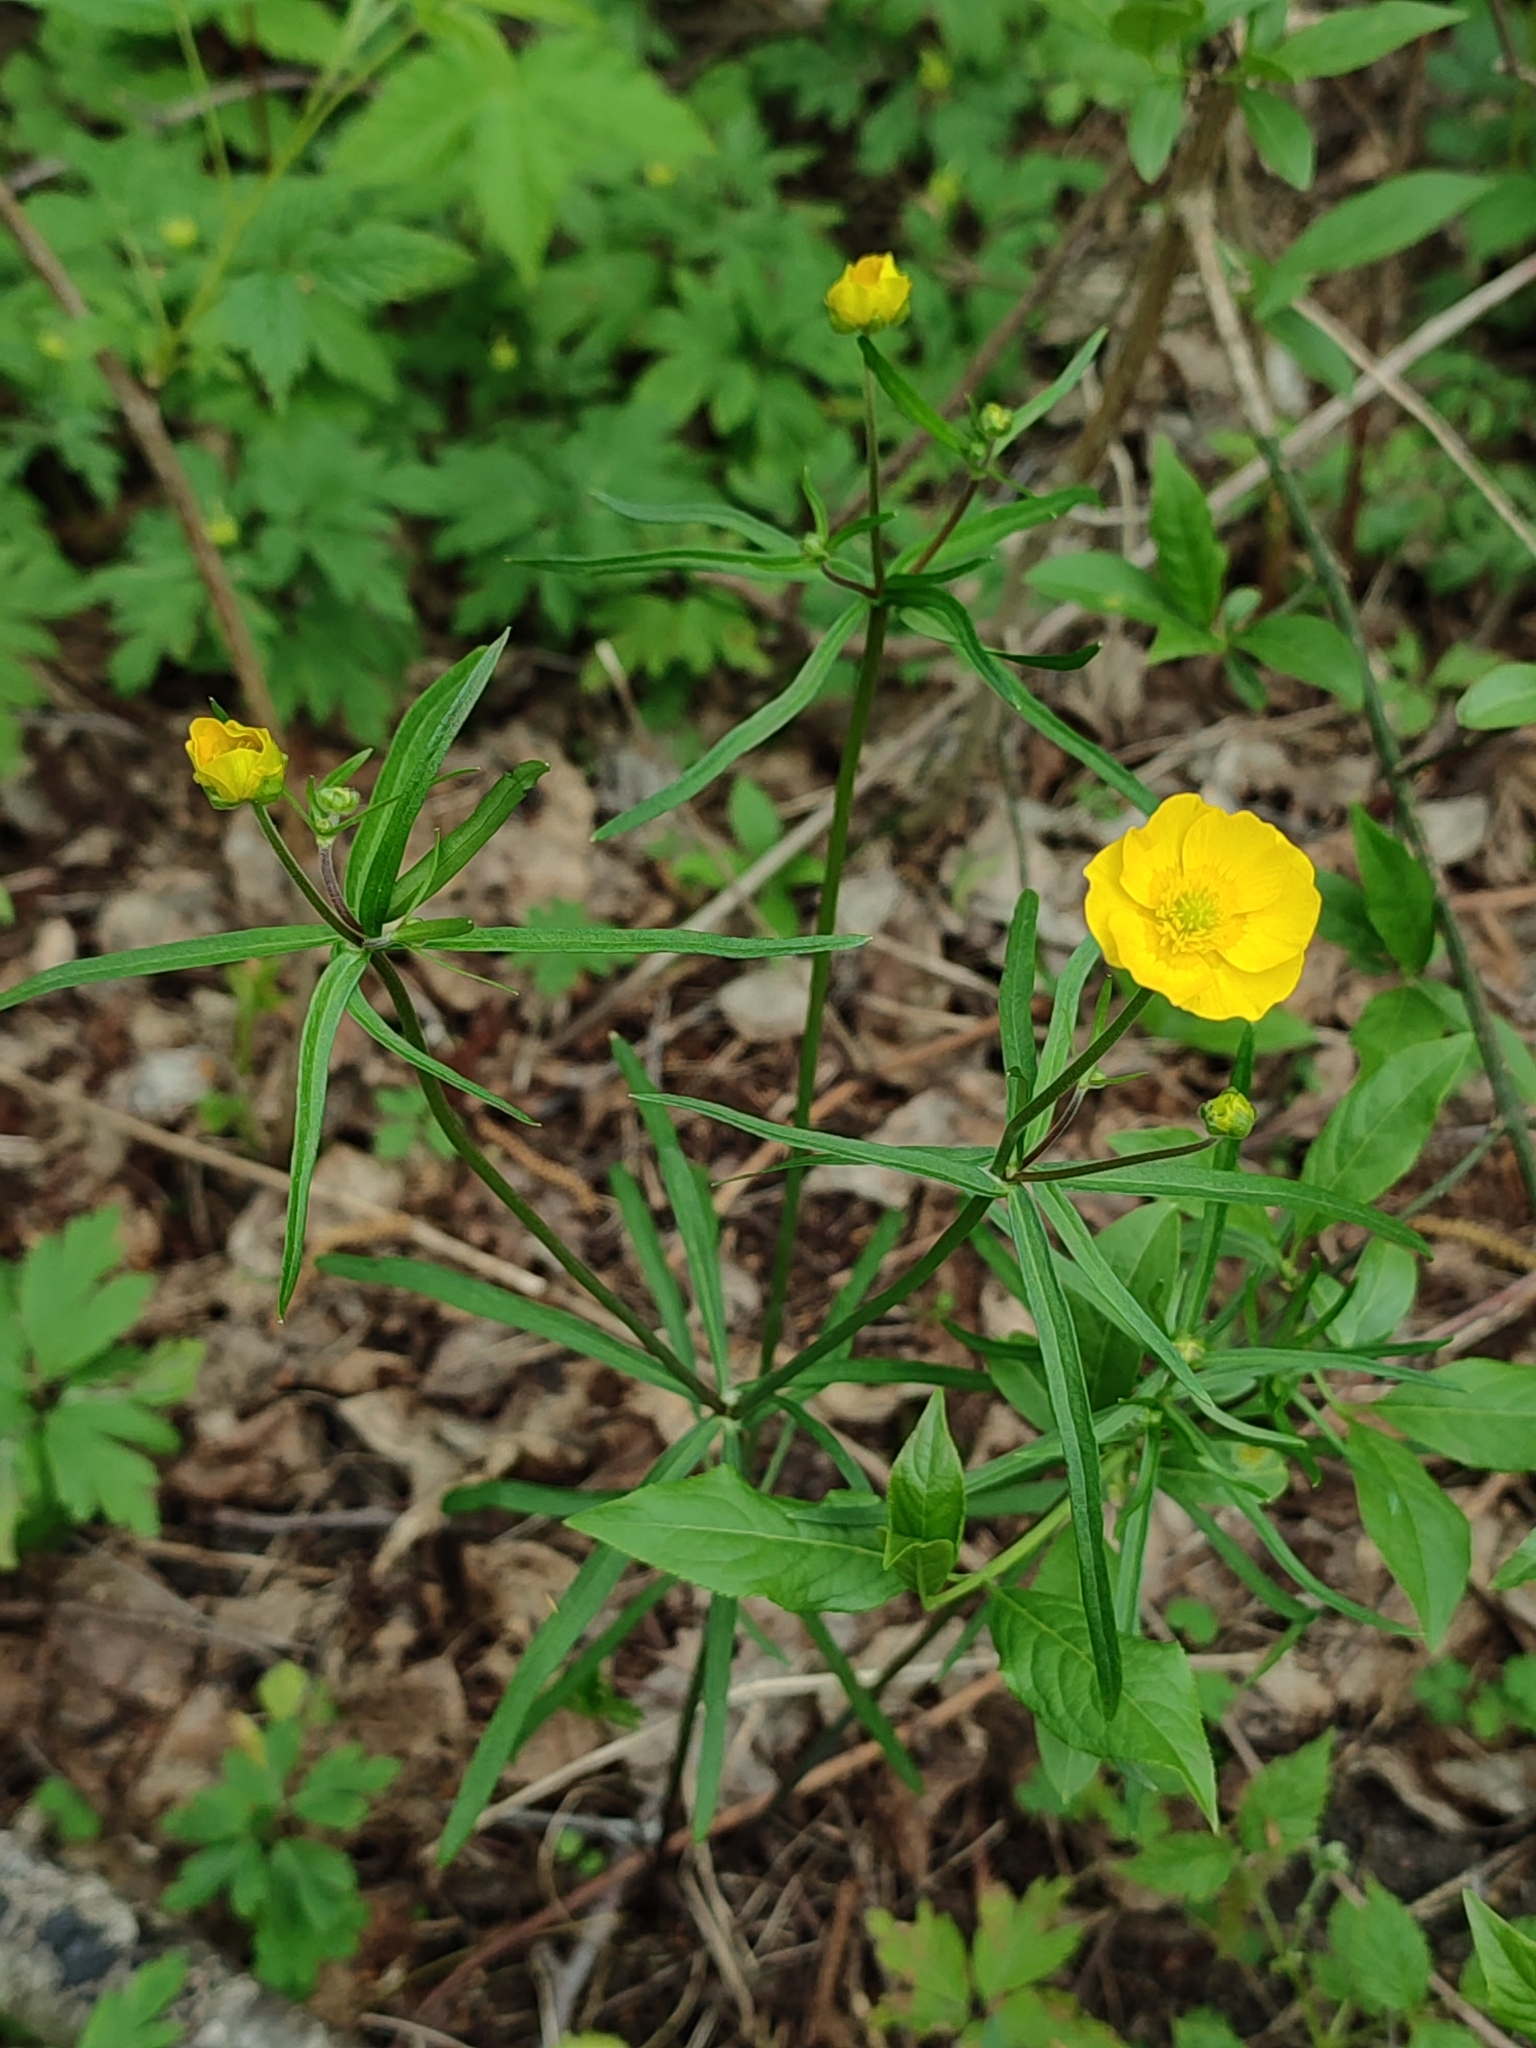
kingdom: Plantae
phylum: Tracheophyta
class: Magnoliopsida
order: Ranunculales
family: Ranunculaceae
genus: Ranunculus
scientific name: Ranunculus auricomus
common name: Goldilocks buttercup
